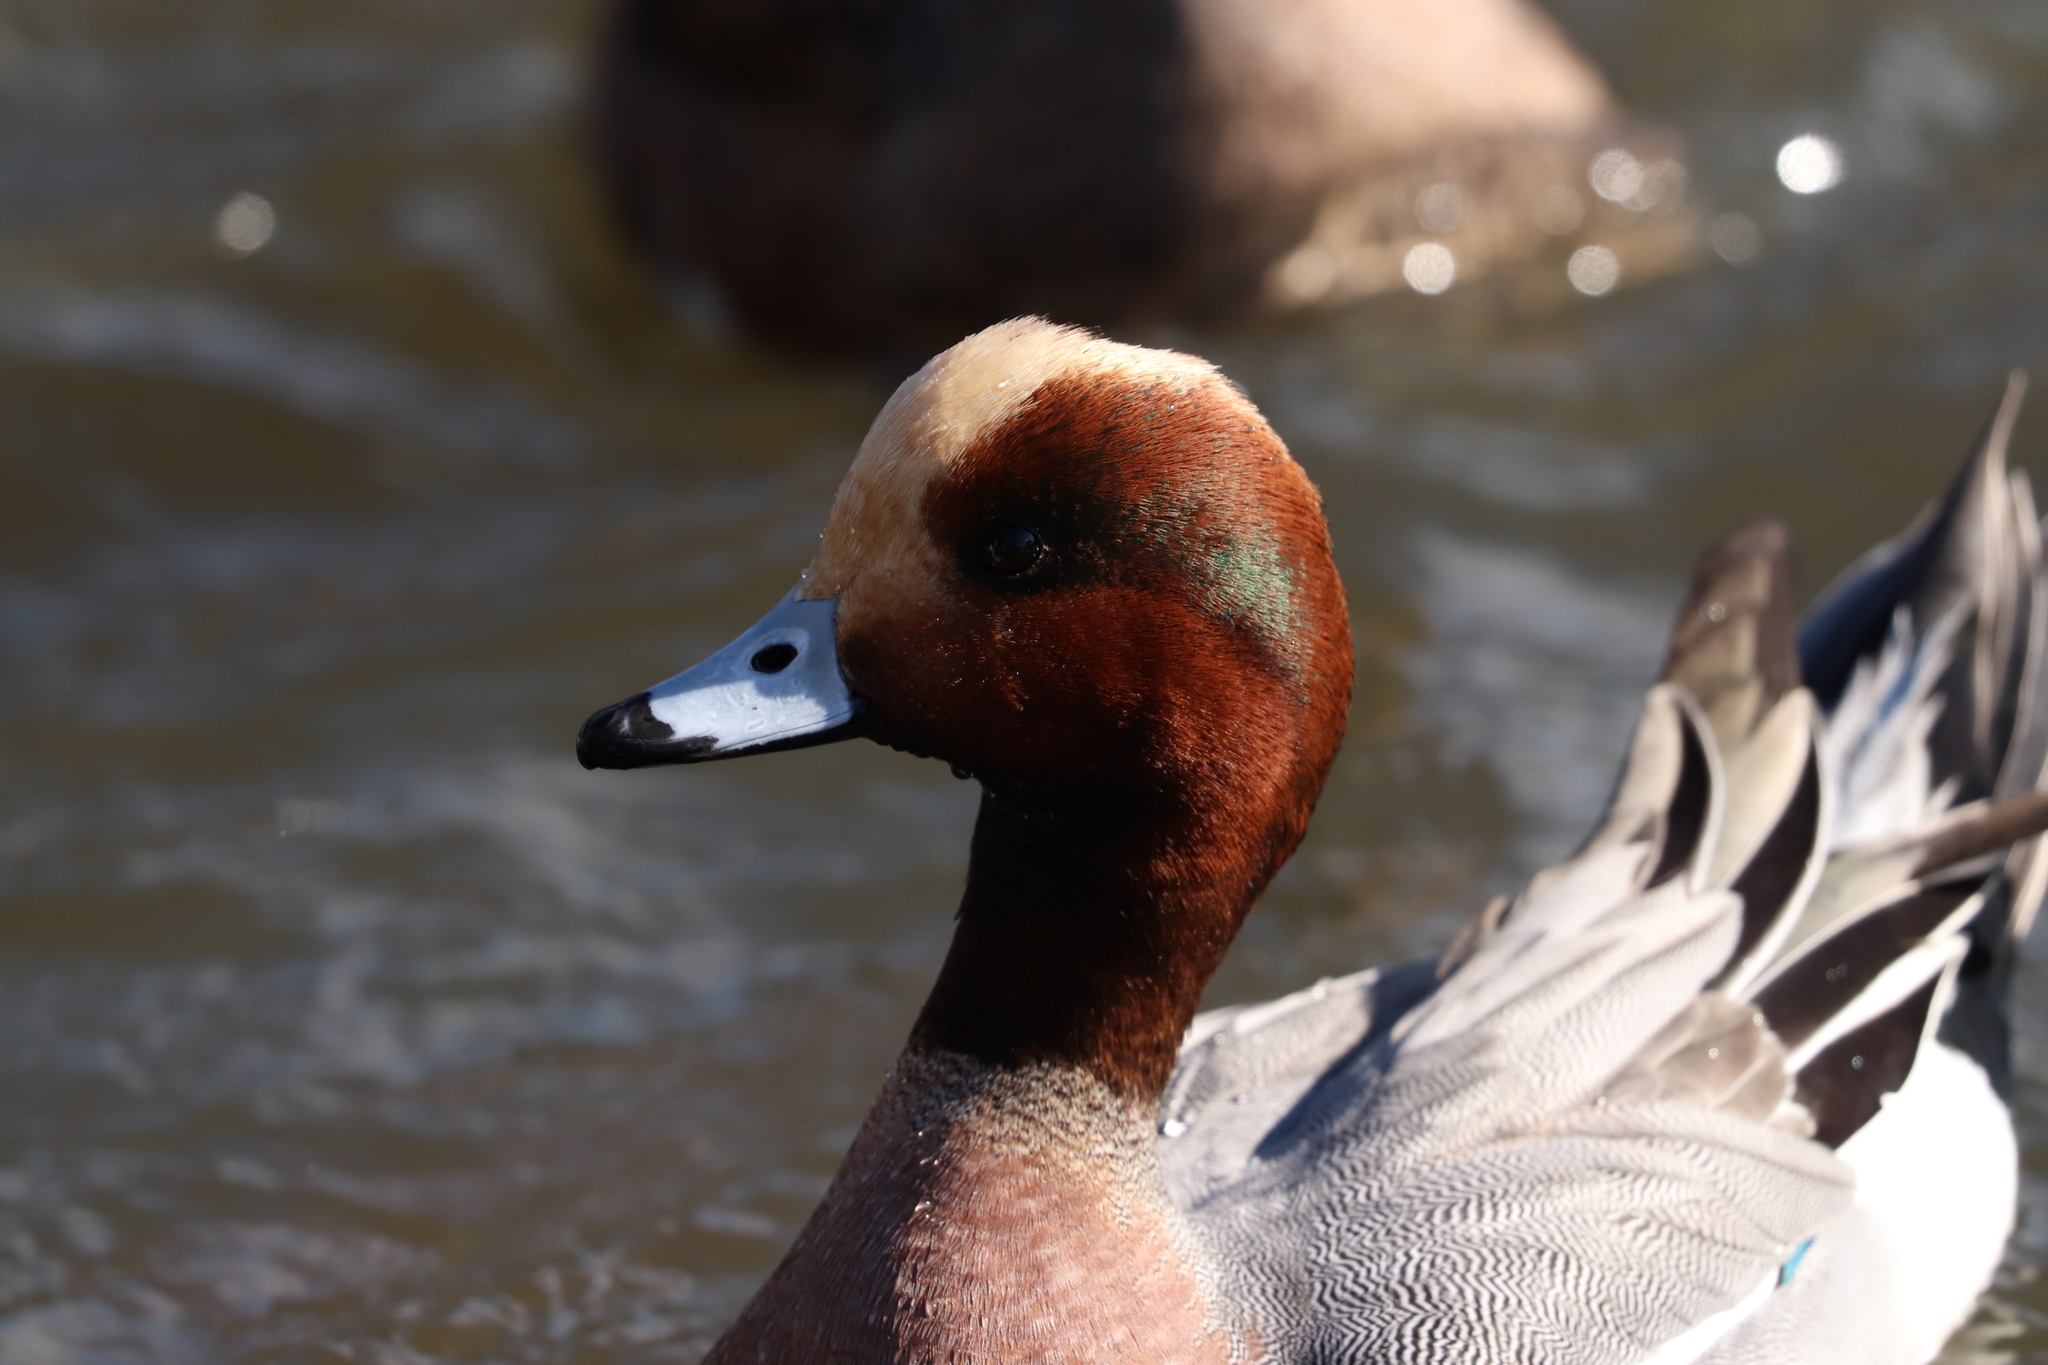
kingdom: Animalia
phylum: Chordata
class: Aves
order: Anseriformes
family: Anatidae
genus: Mareca
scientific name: Mareca penelope
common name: Eurasian wigeon
